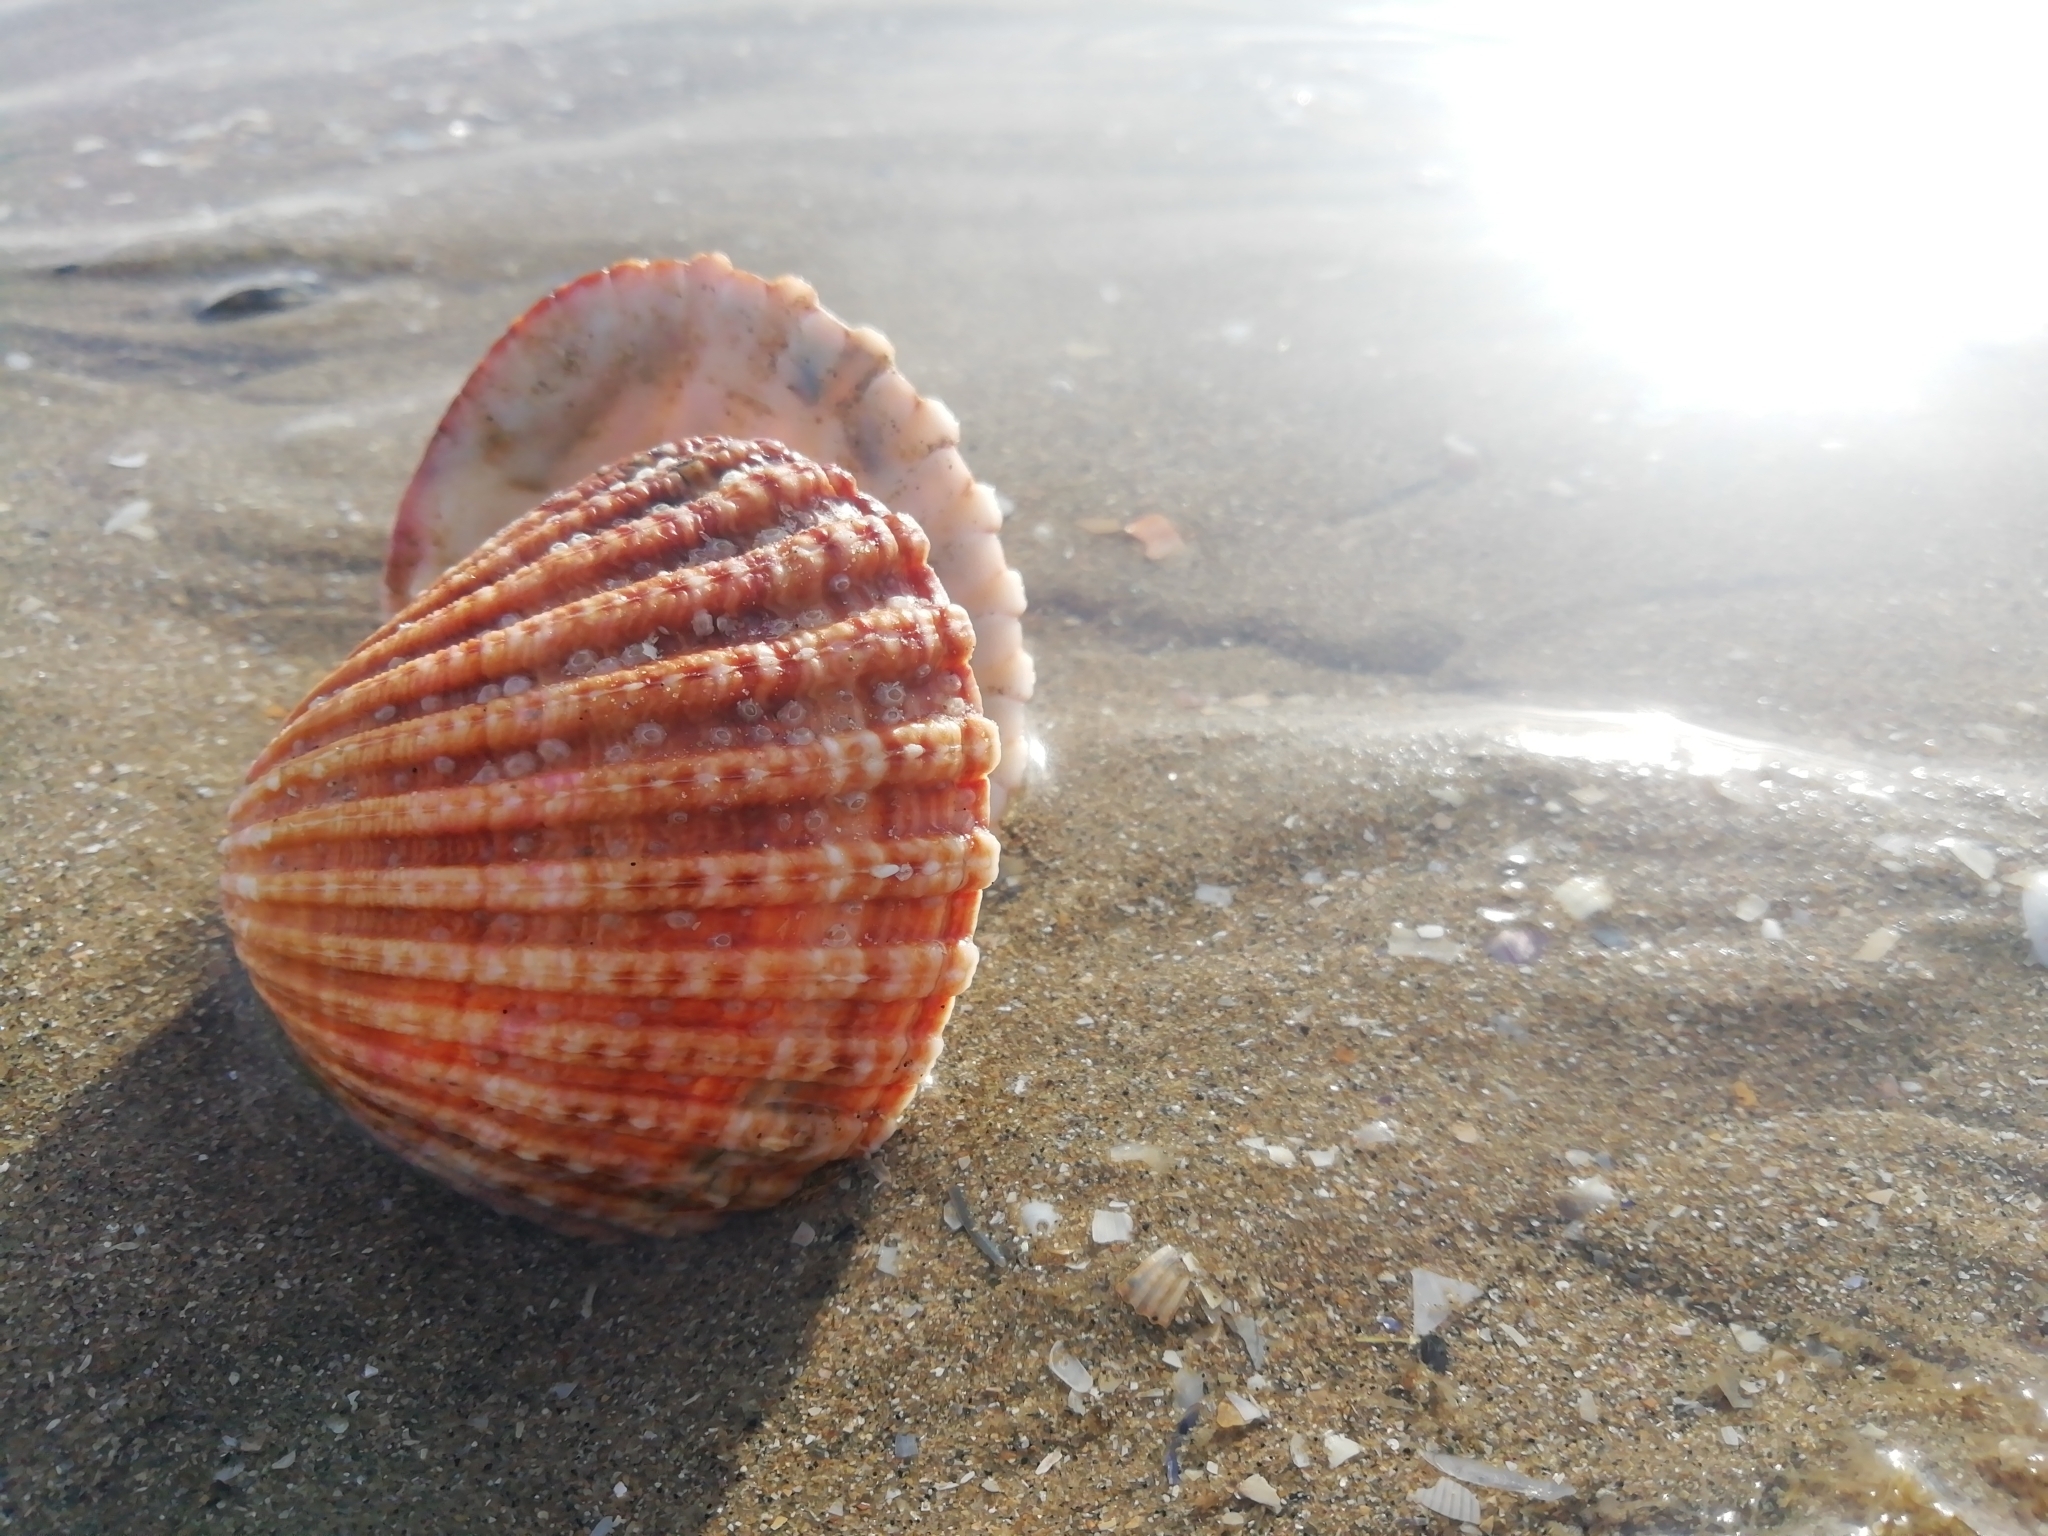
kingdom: Animalia
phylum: Mollusca
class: Bivalvia
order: Cardiida
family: Cardiidae
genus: Acanthocardia
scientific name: Acanthocardia tuberculata
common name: Rough cockle
